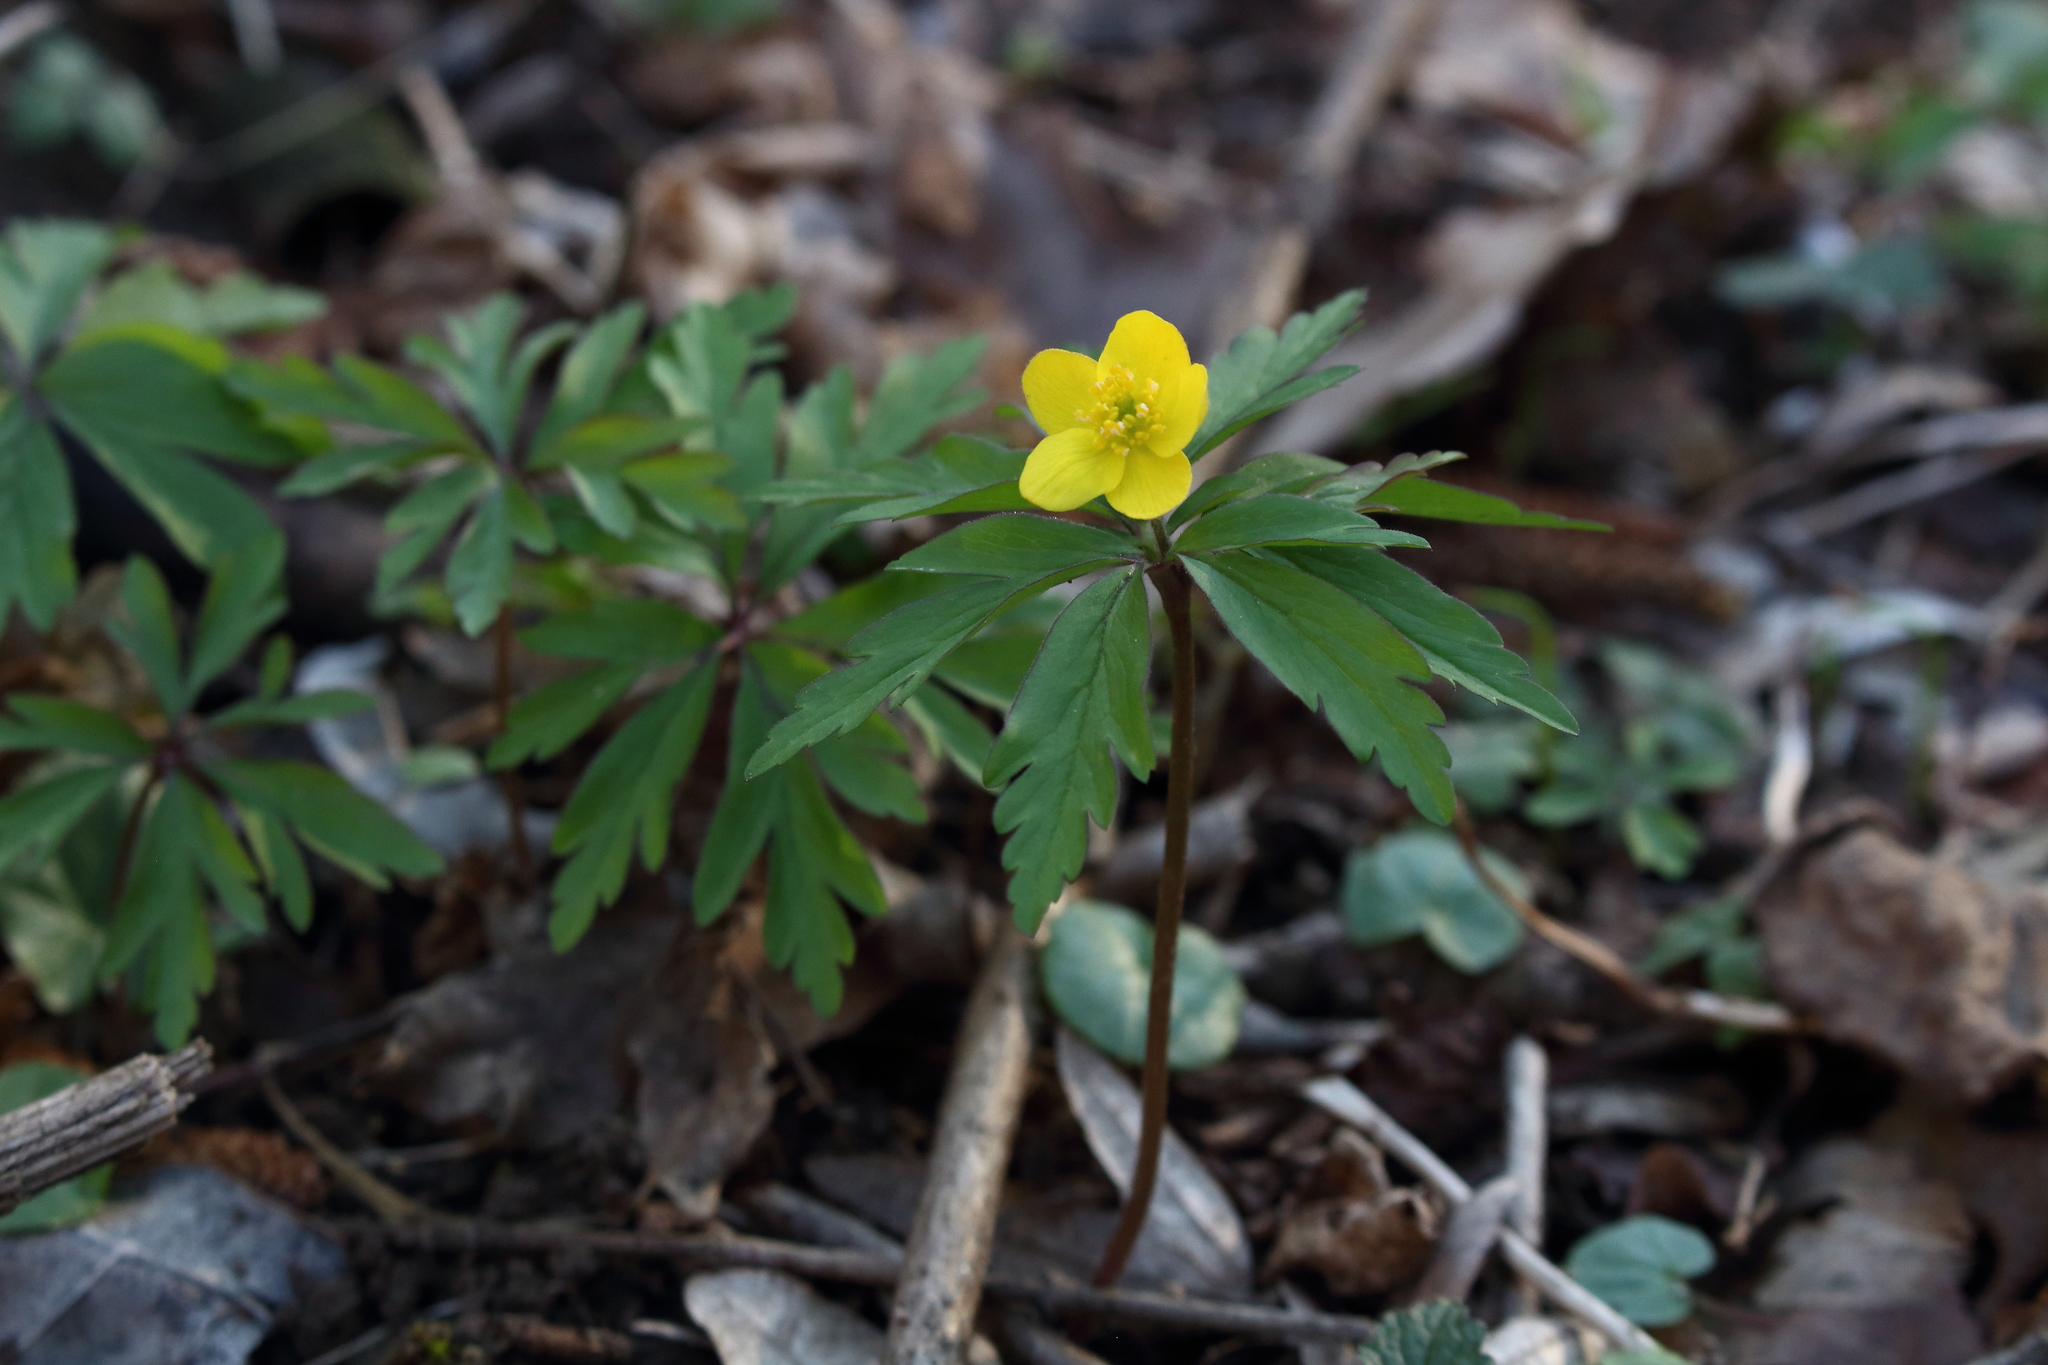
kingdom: Plantae
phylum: Tracheophyta
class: Magnoliopsida
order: Ranunculales
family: Ranunculaceae
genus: Anemone
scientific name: Anemone ranunculoides
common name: Yellow anemone
